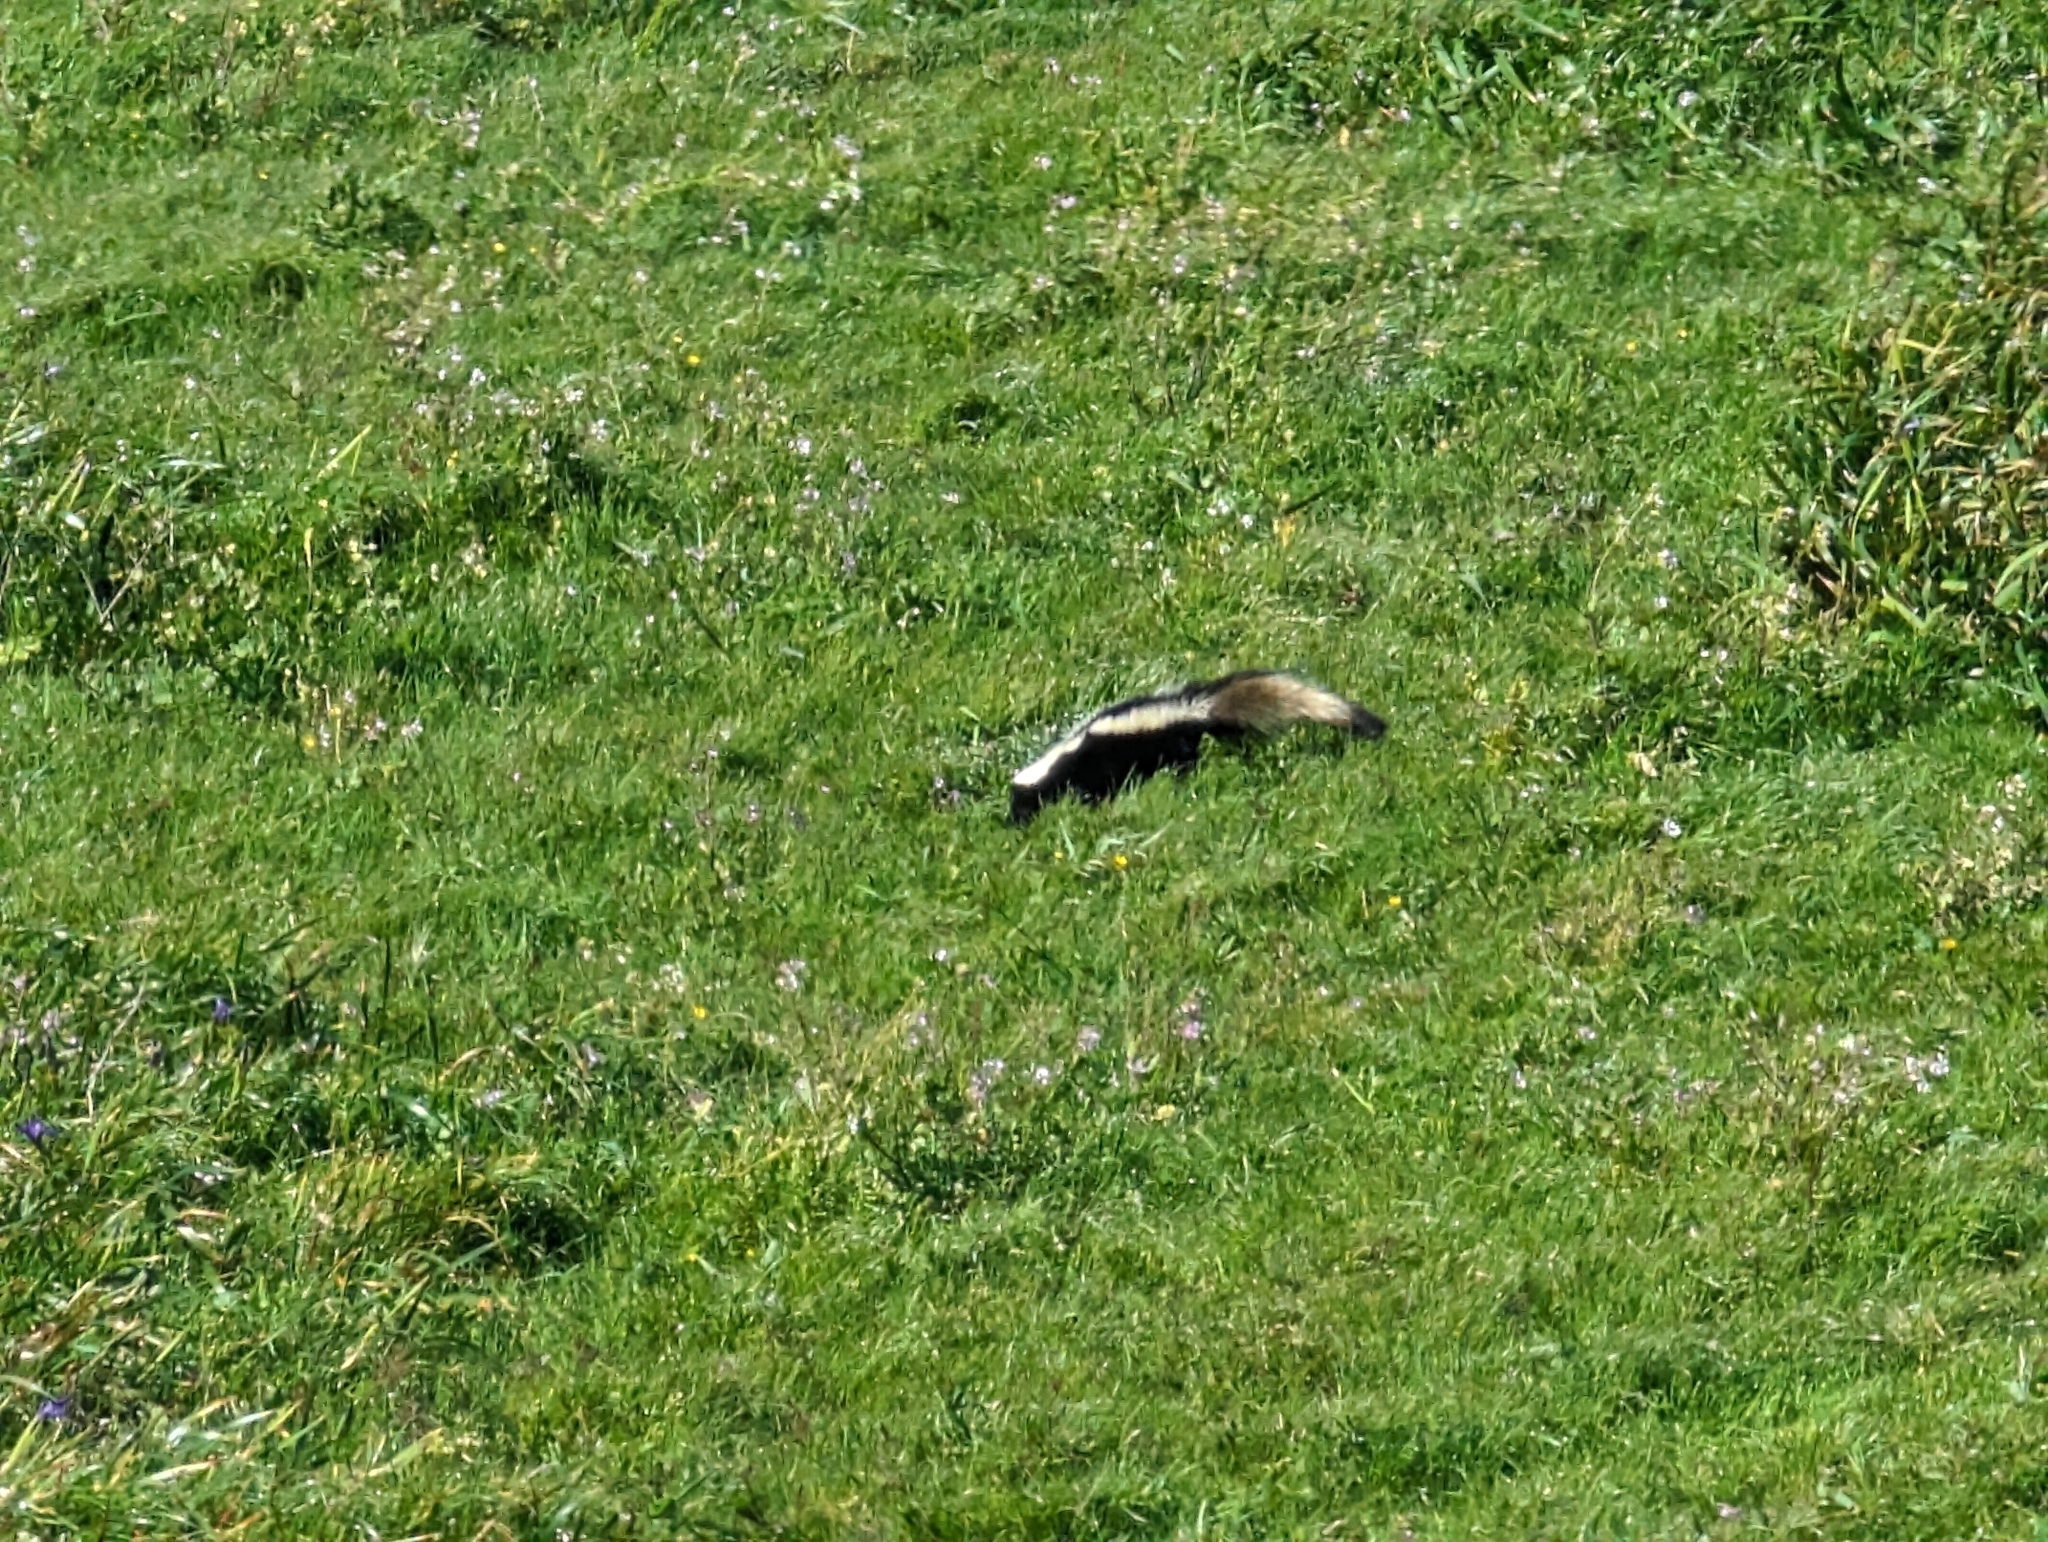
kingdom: Animalia
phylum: Chordata
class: Mammalia
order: Carnivora
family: Mephitidae
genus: Mephitis
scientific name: Mephitis mephitis
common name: Striped skunk
